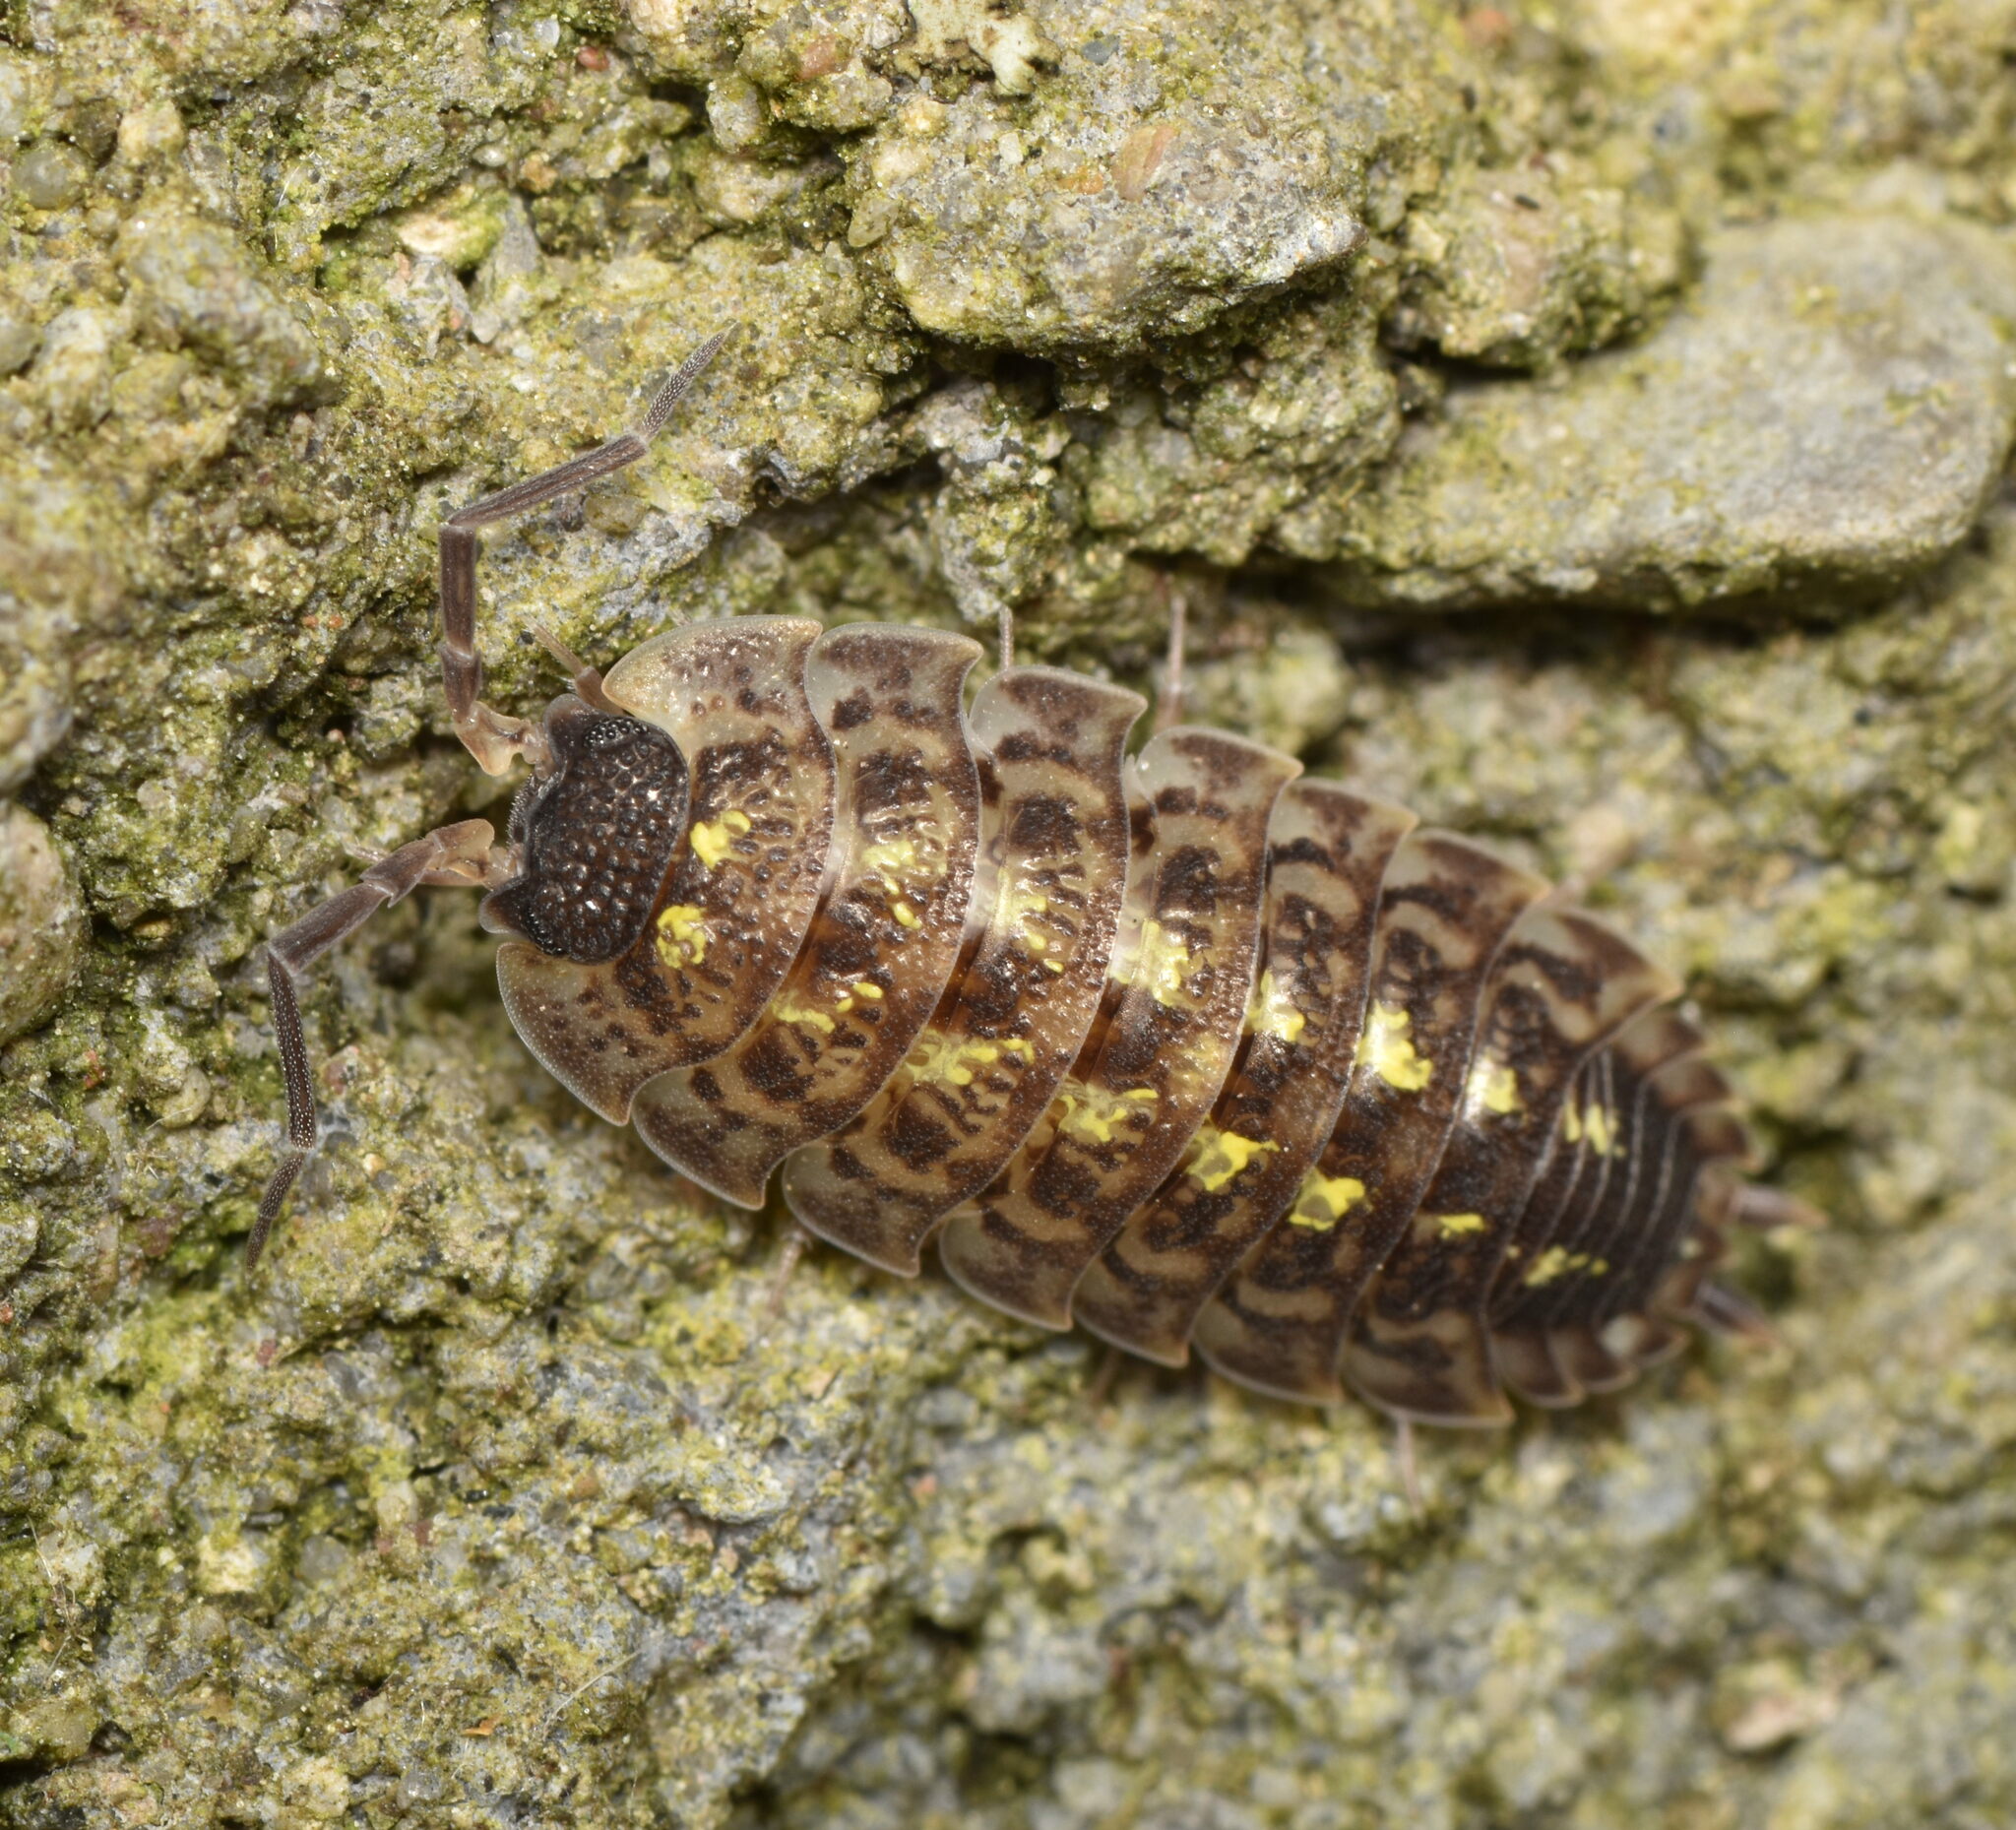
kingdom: Animalia
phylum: Arthropoda
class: Malacostraca
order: Isopoda
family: Porcellionidae
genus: Porcellio
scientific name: Porcellio spinicornis
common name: Painted woodlouse
